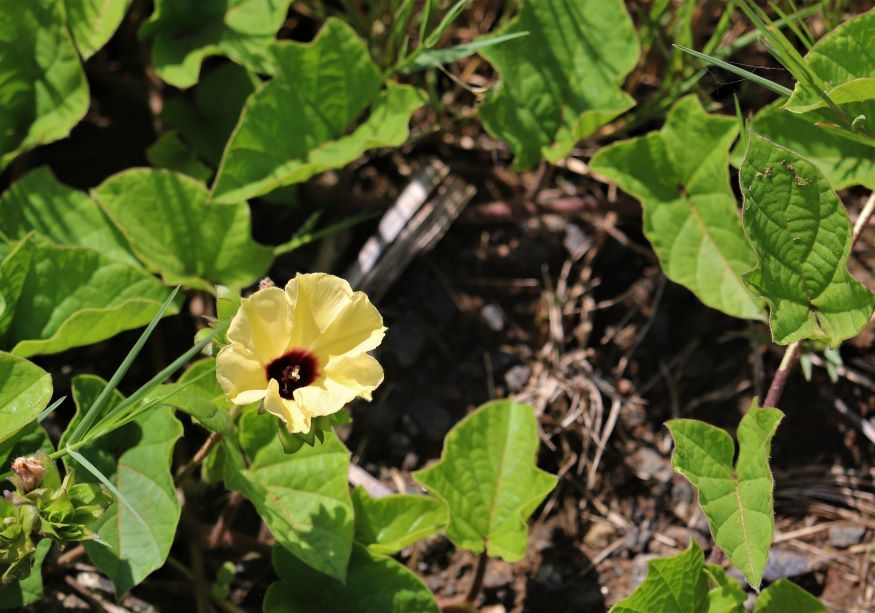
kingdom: Plantae
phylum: Tracheophyta
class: Magnoliopsida
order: Solanales
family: Convolvulaceae
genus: Hewittia
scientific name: Hewittia malabarica
